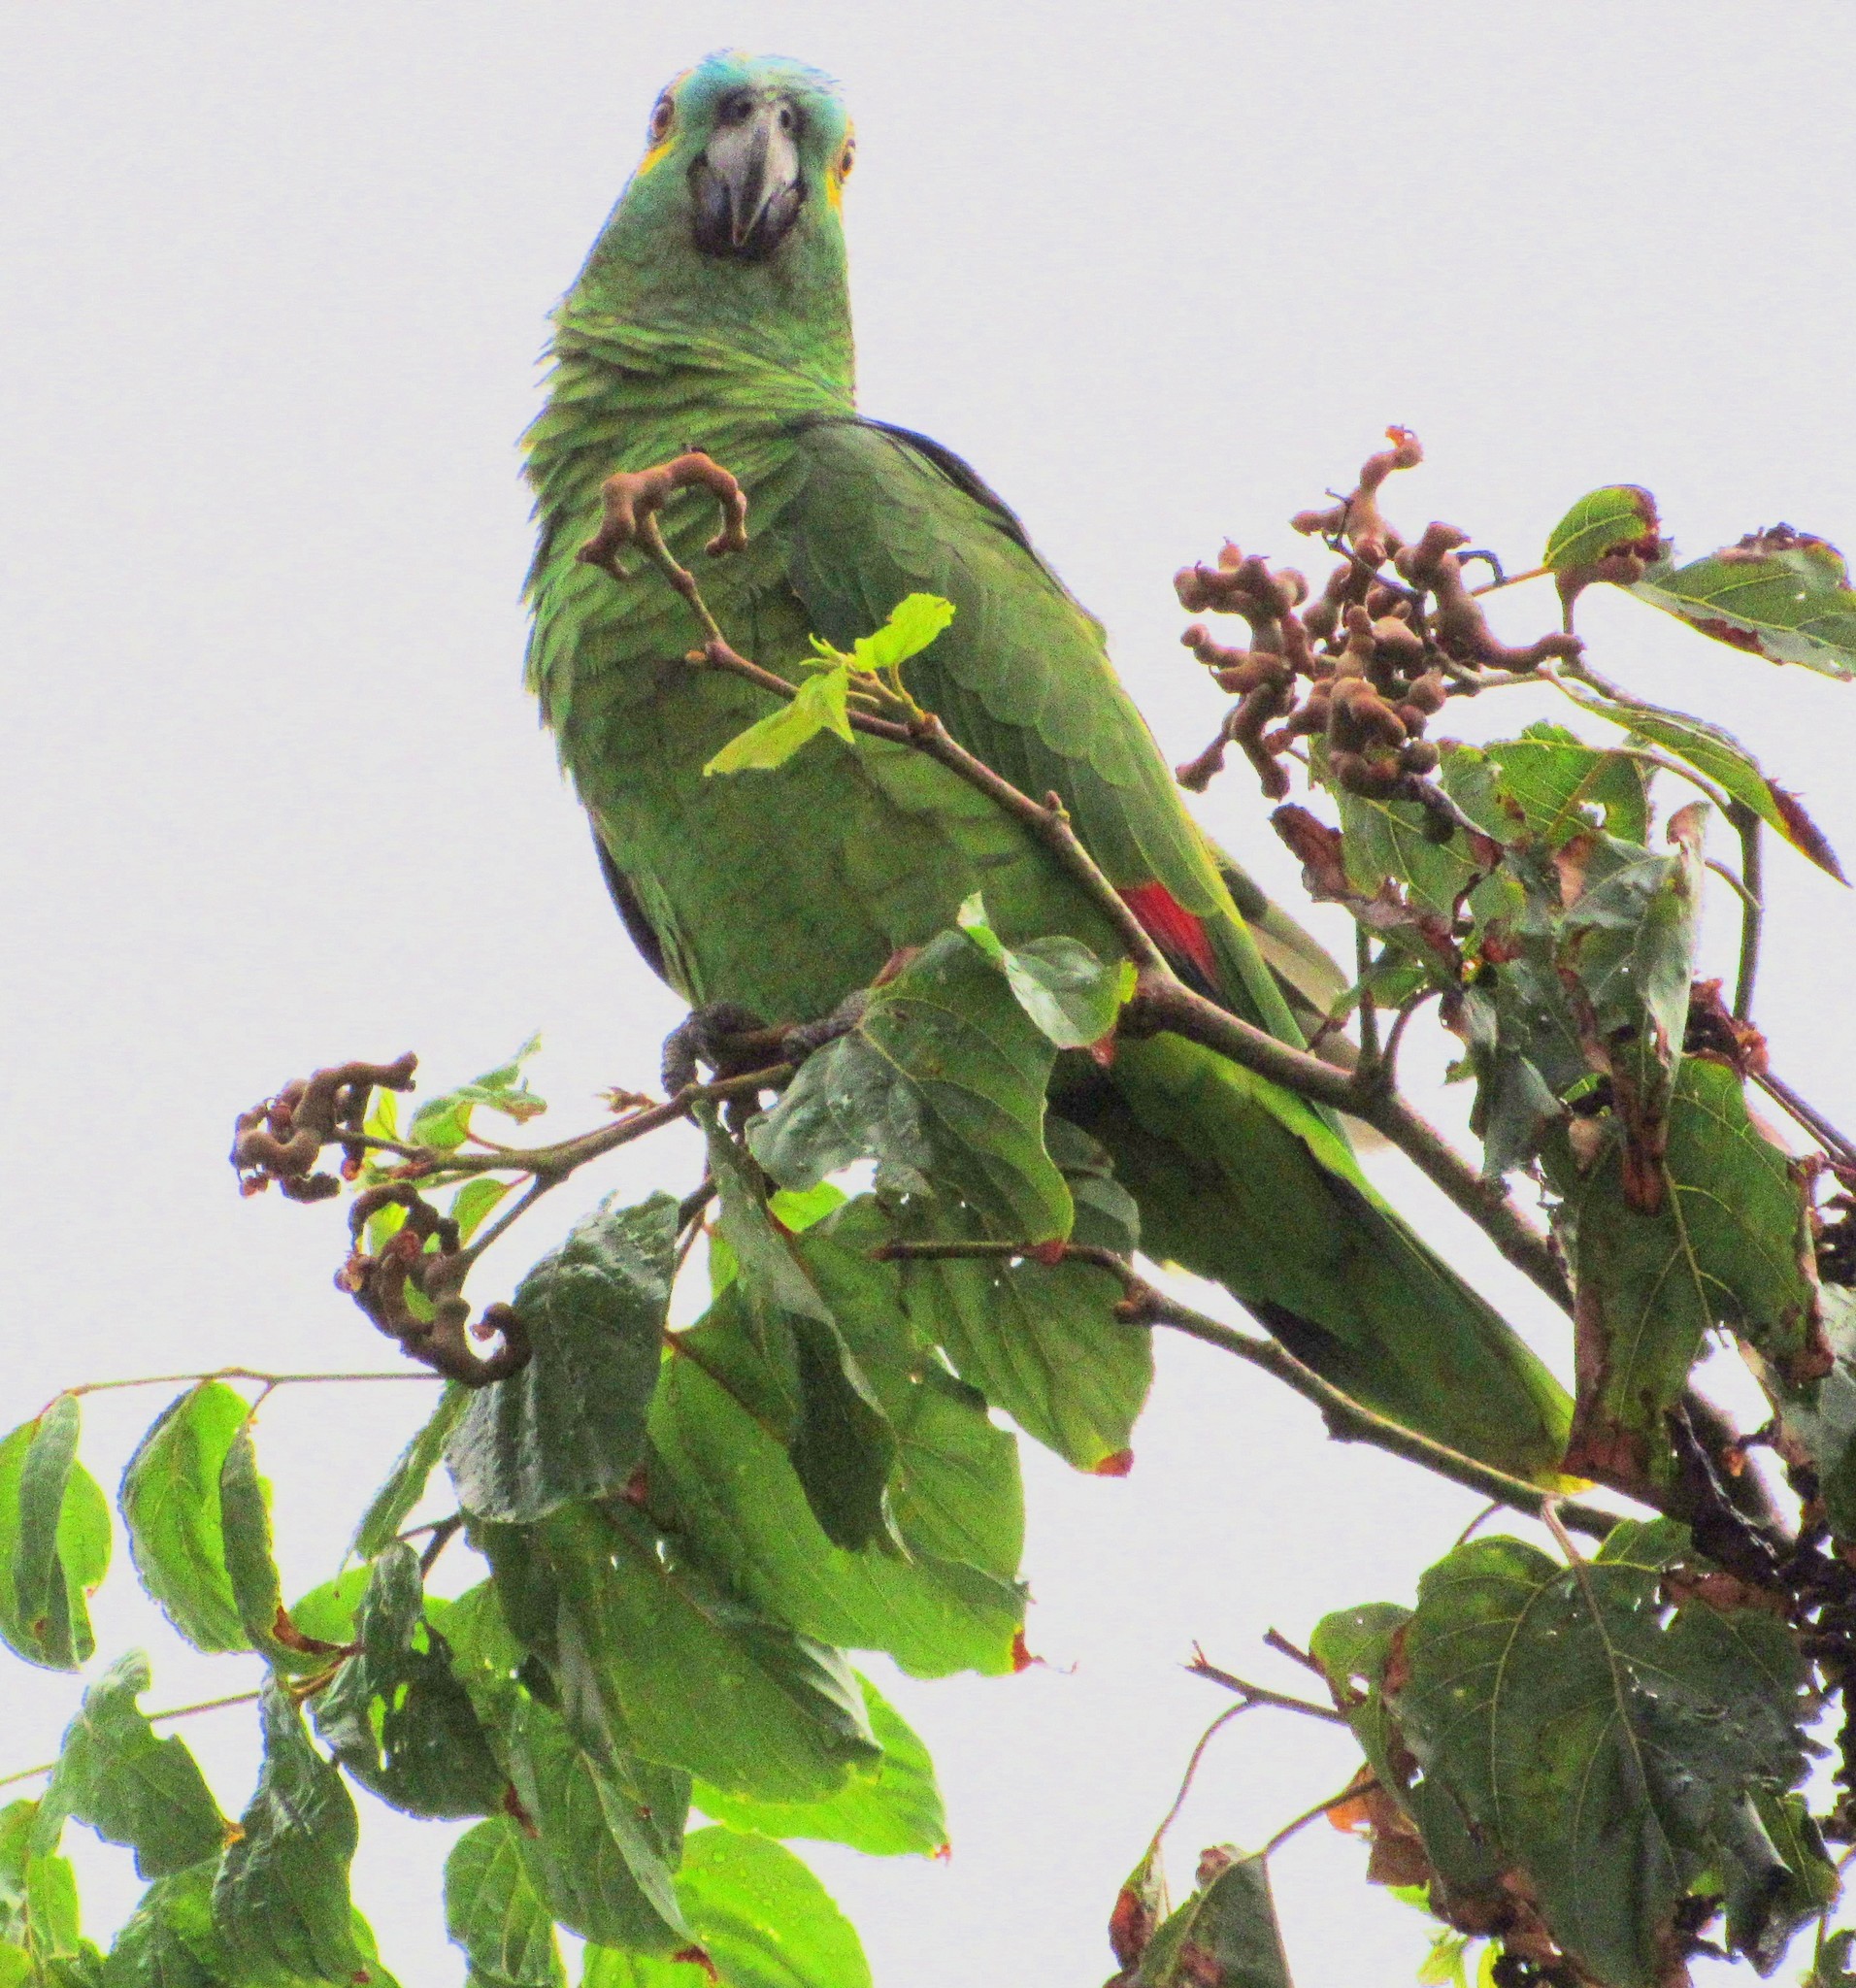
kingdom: Animalia
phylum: Chordata
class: Aves
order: Psittaciformes
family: Psittacidae
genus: Amazona
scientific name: Amazona aestiva
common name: Turquoise-fronted amazon
